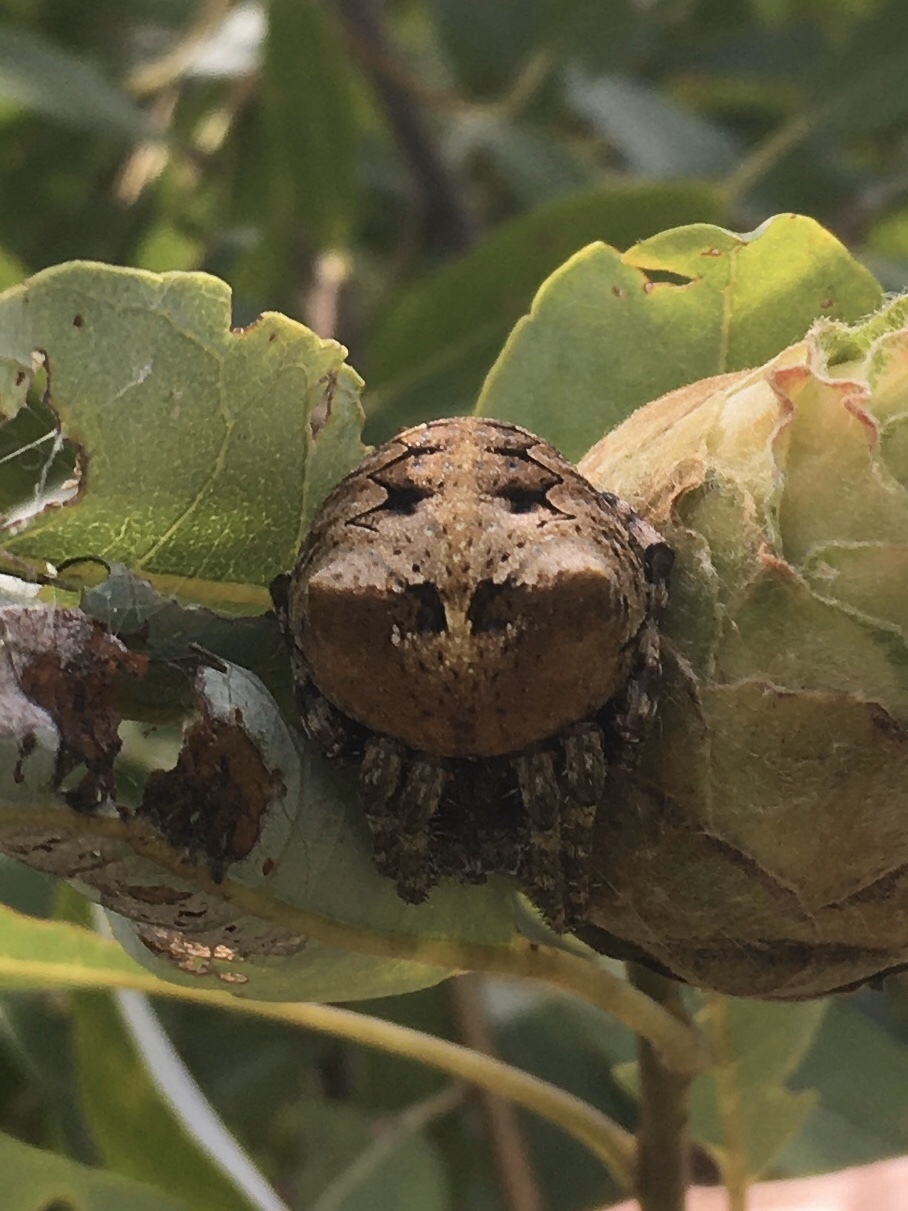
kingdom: Animalia
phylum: Arthropoda
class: Arachnida
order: Araneae
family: Araneidae
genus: Araneus
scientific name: Araneus bicentenarius
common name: Giant lichen orbweaver
